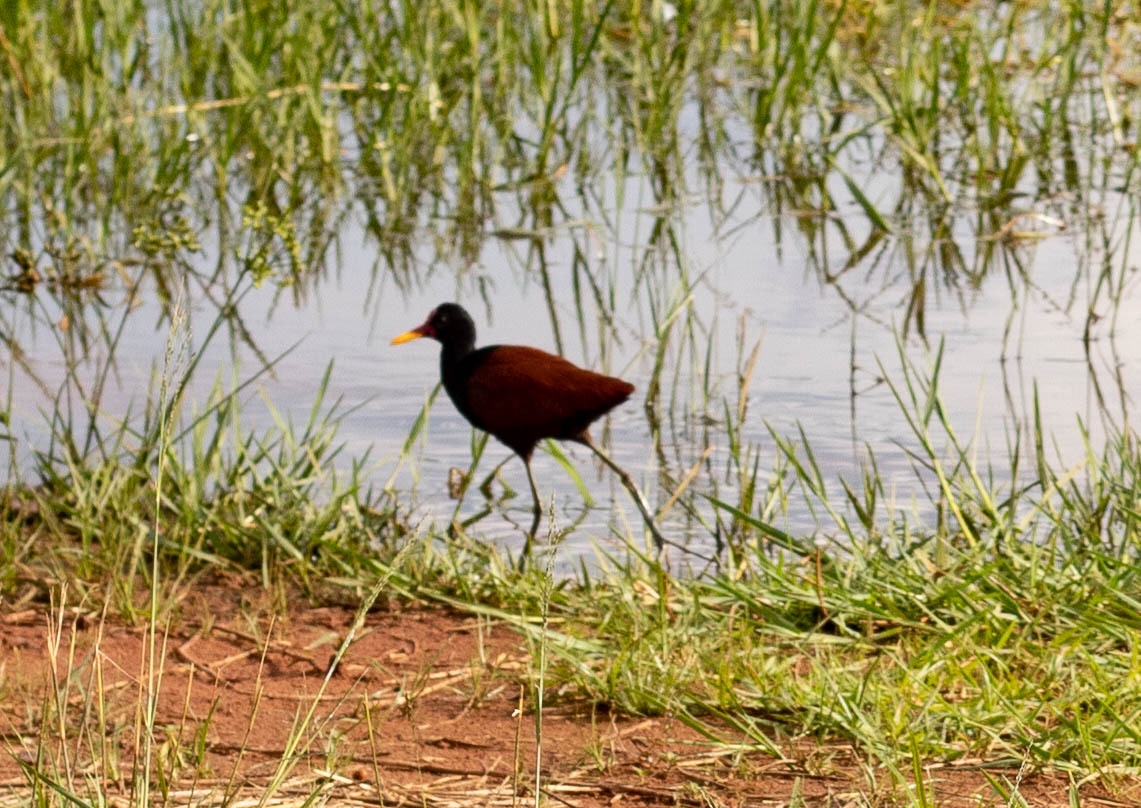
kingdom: Animalia
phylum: Chordata
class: Aves
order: Charadriiformes
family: Jacanidae
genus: Jacana
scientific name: Jacana jacana
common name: Wattled jacana
